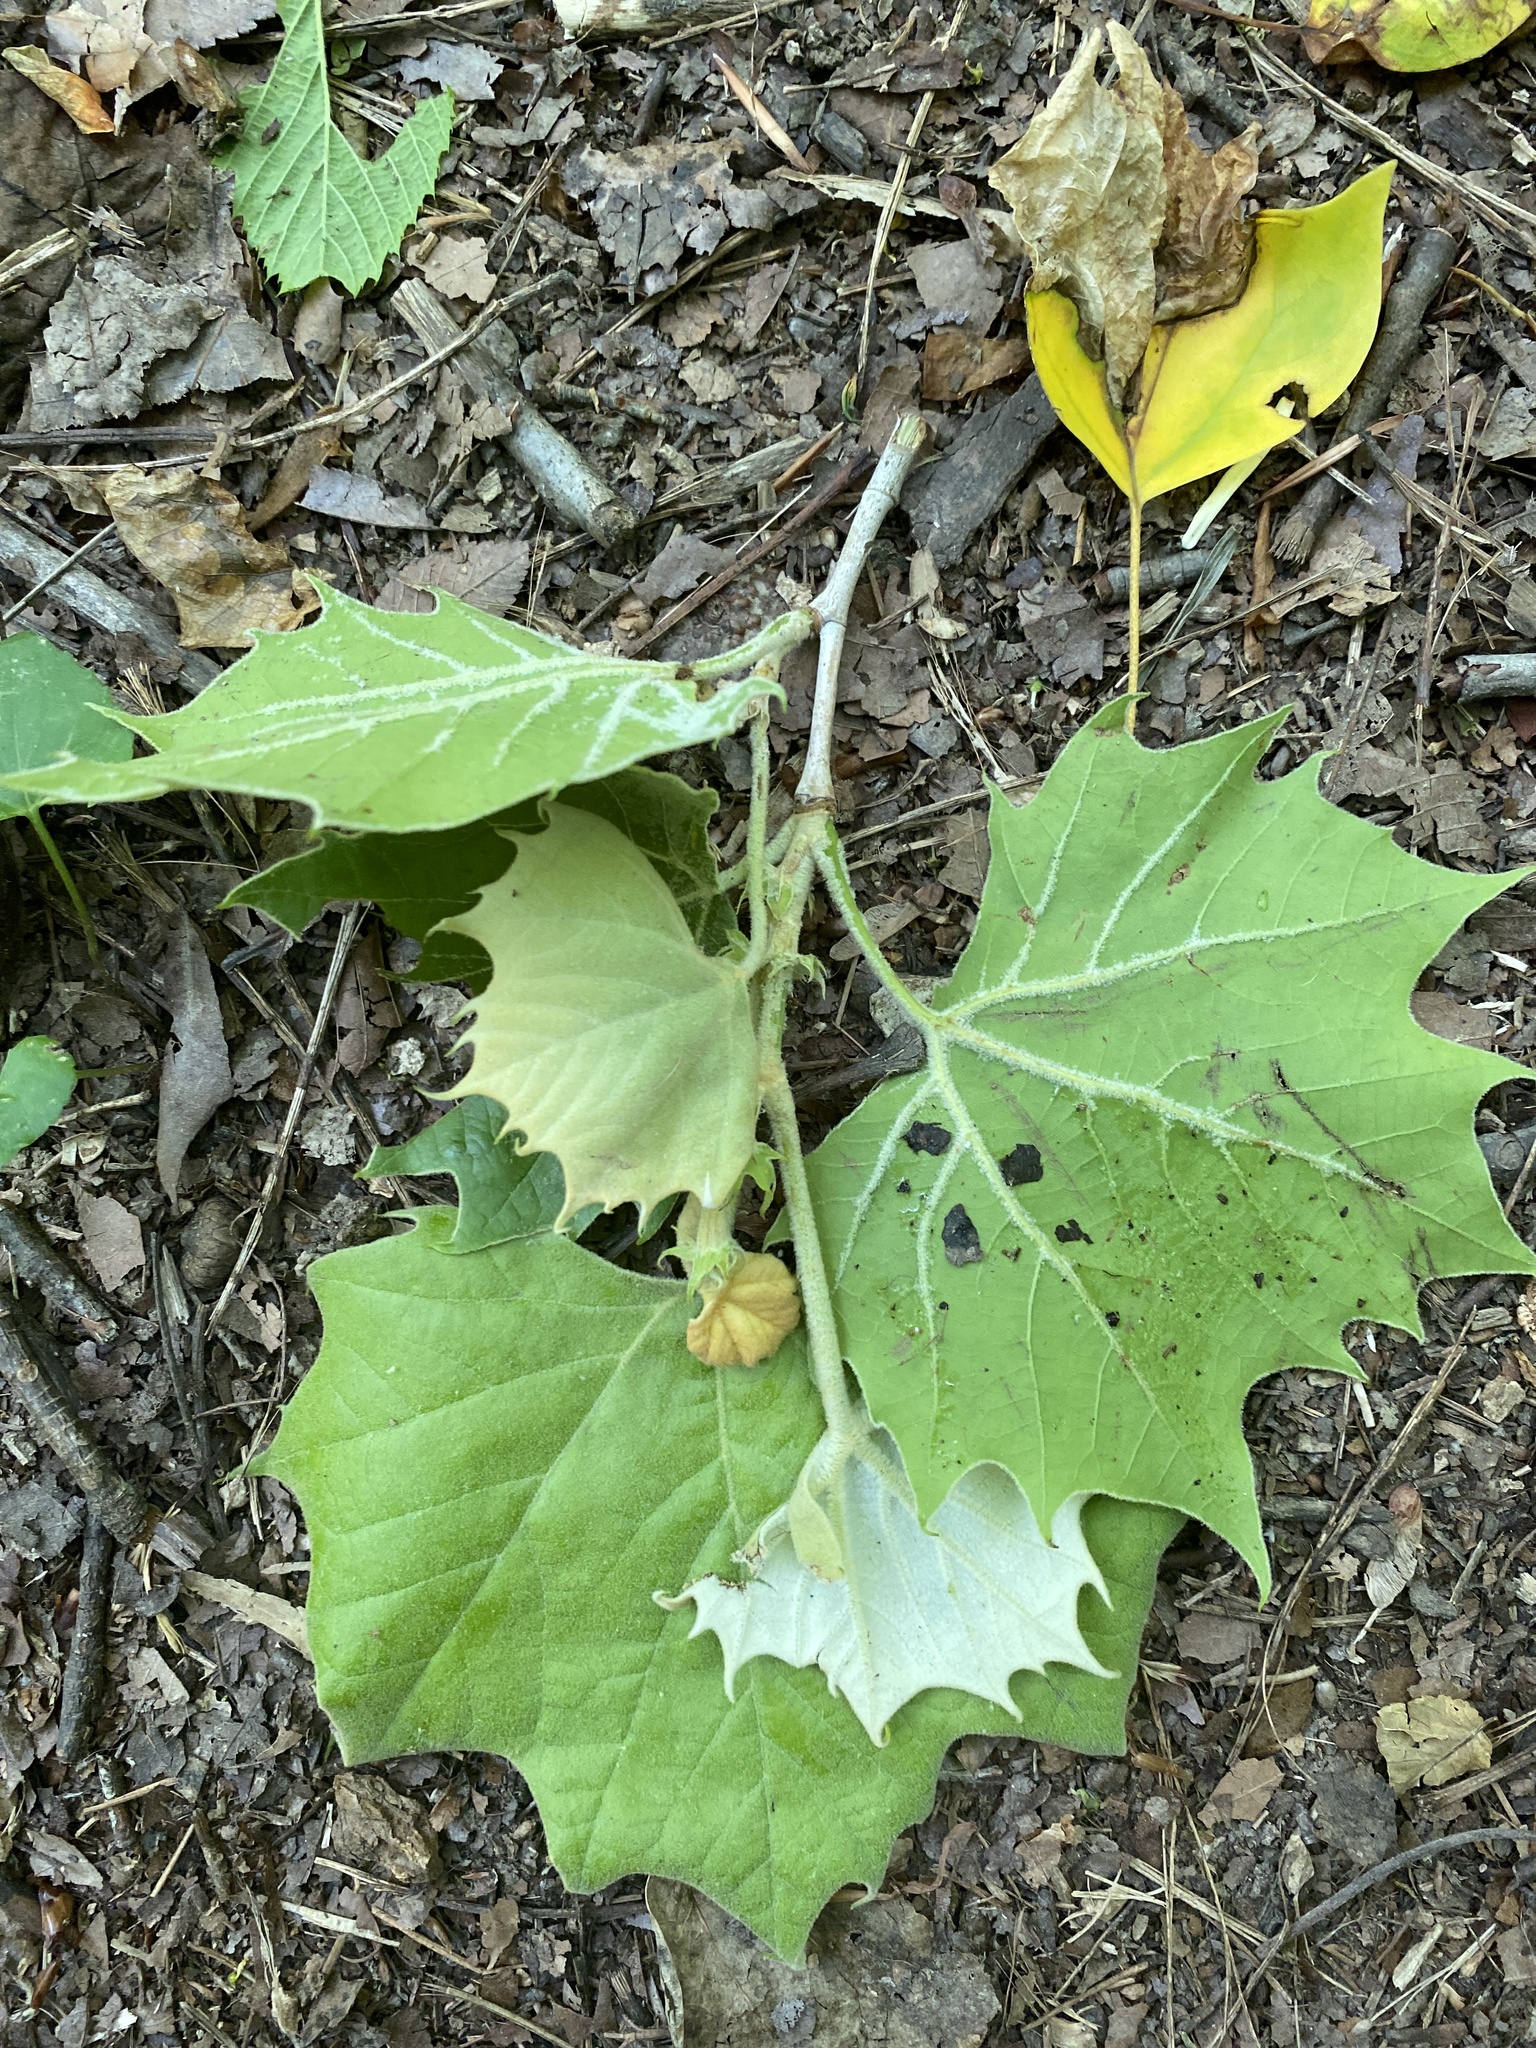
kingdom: Plantae
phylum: Tracheophyta
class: Magnoliopsida
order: Proteales
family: Platanaceae
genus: Platanus
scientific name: Platanus occidentalis
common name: American sycamore
